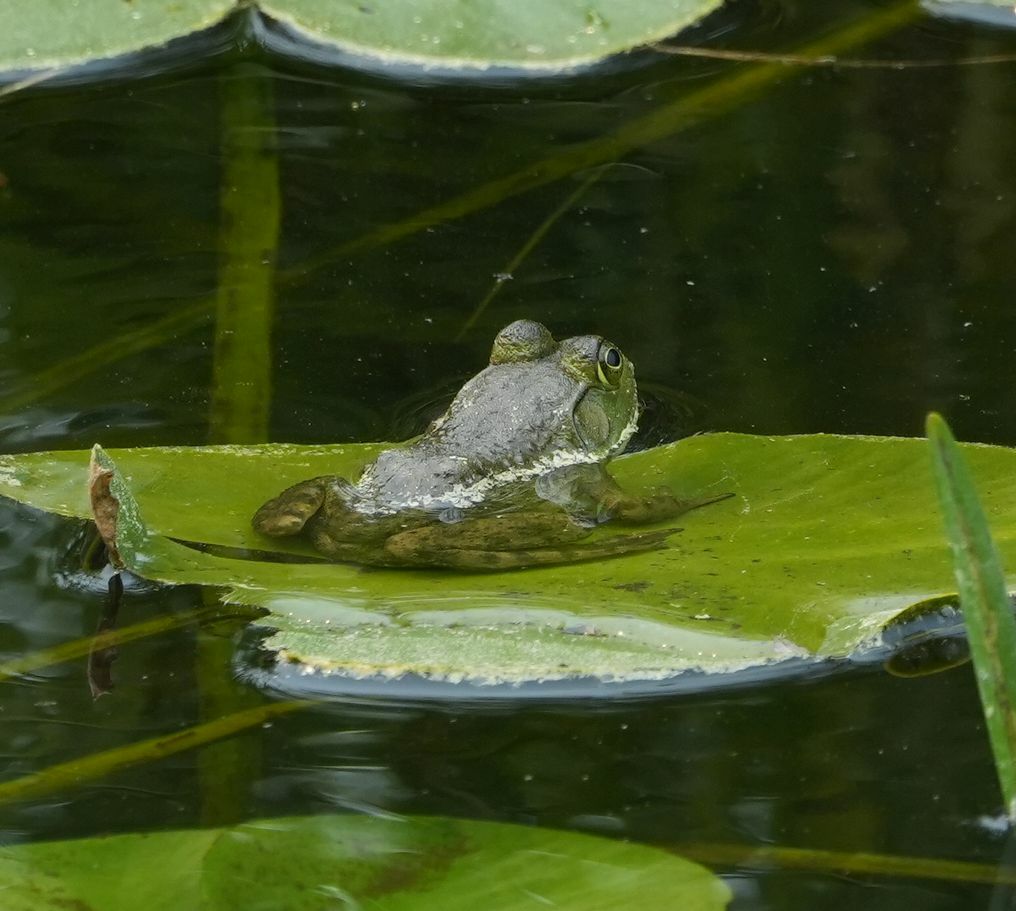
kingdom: Animalia
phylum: Chordata
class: Amphibia
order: Anura
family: Ranidae
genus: Lithobates
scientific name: Lithobates catesbeianus
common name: American bullfrog
